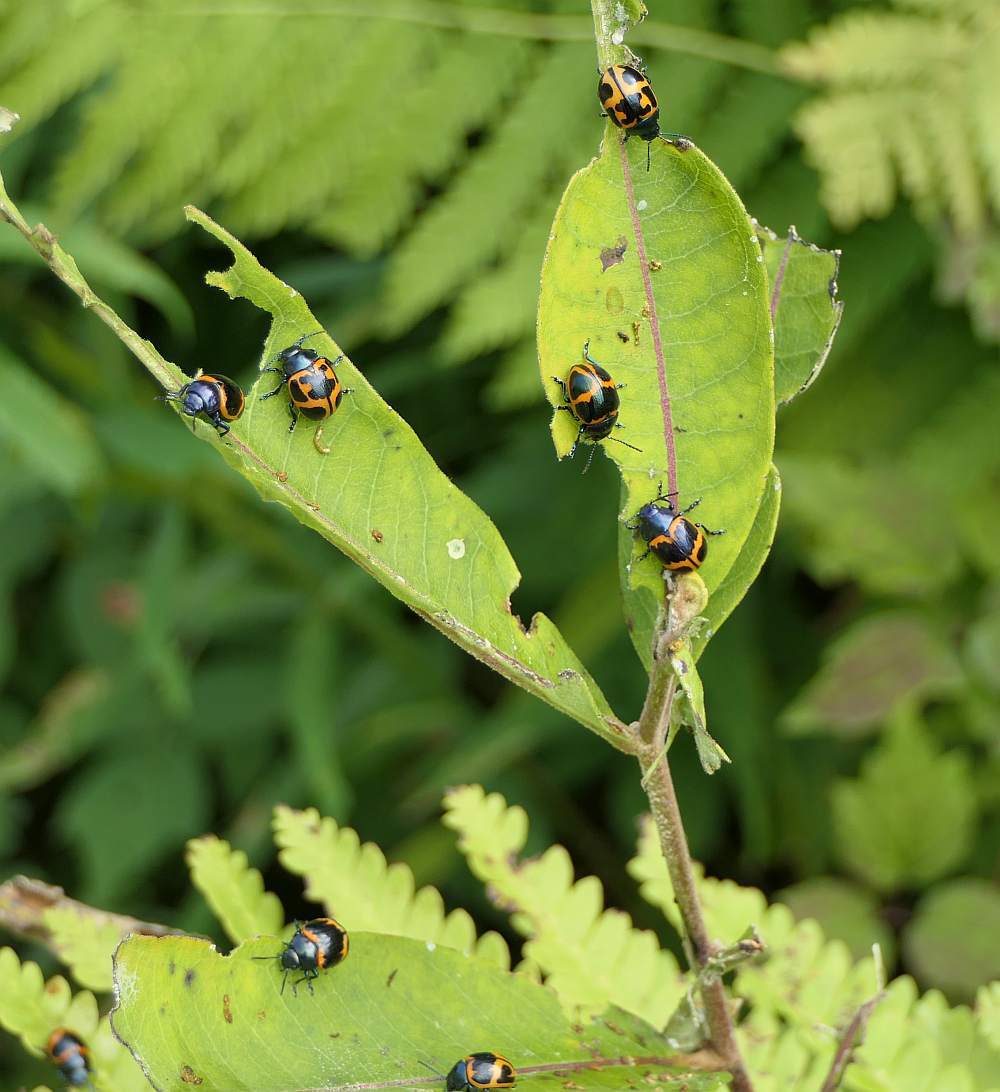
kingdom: Animalia
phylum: Arthropoda
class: Insecta
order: Coleoptera
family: Chrysomelidae
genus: Labidomera
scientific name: Labidomera clivicollis
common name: Swamp milkweed leaf beetle
